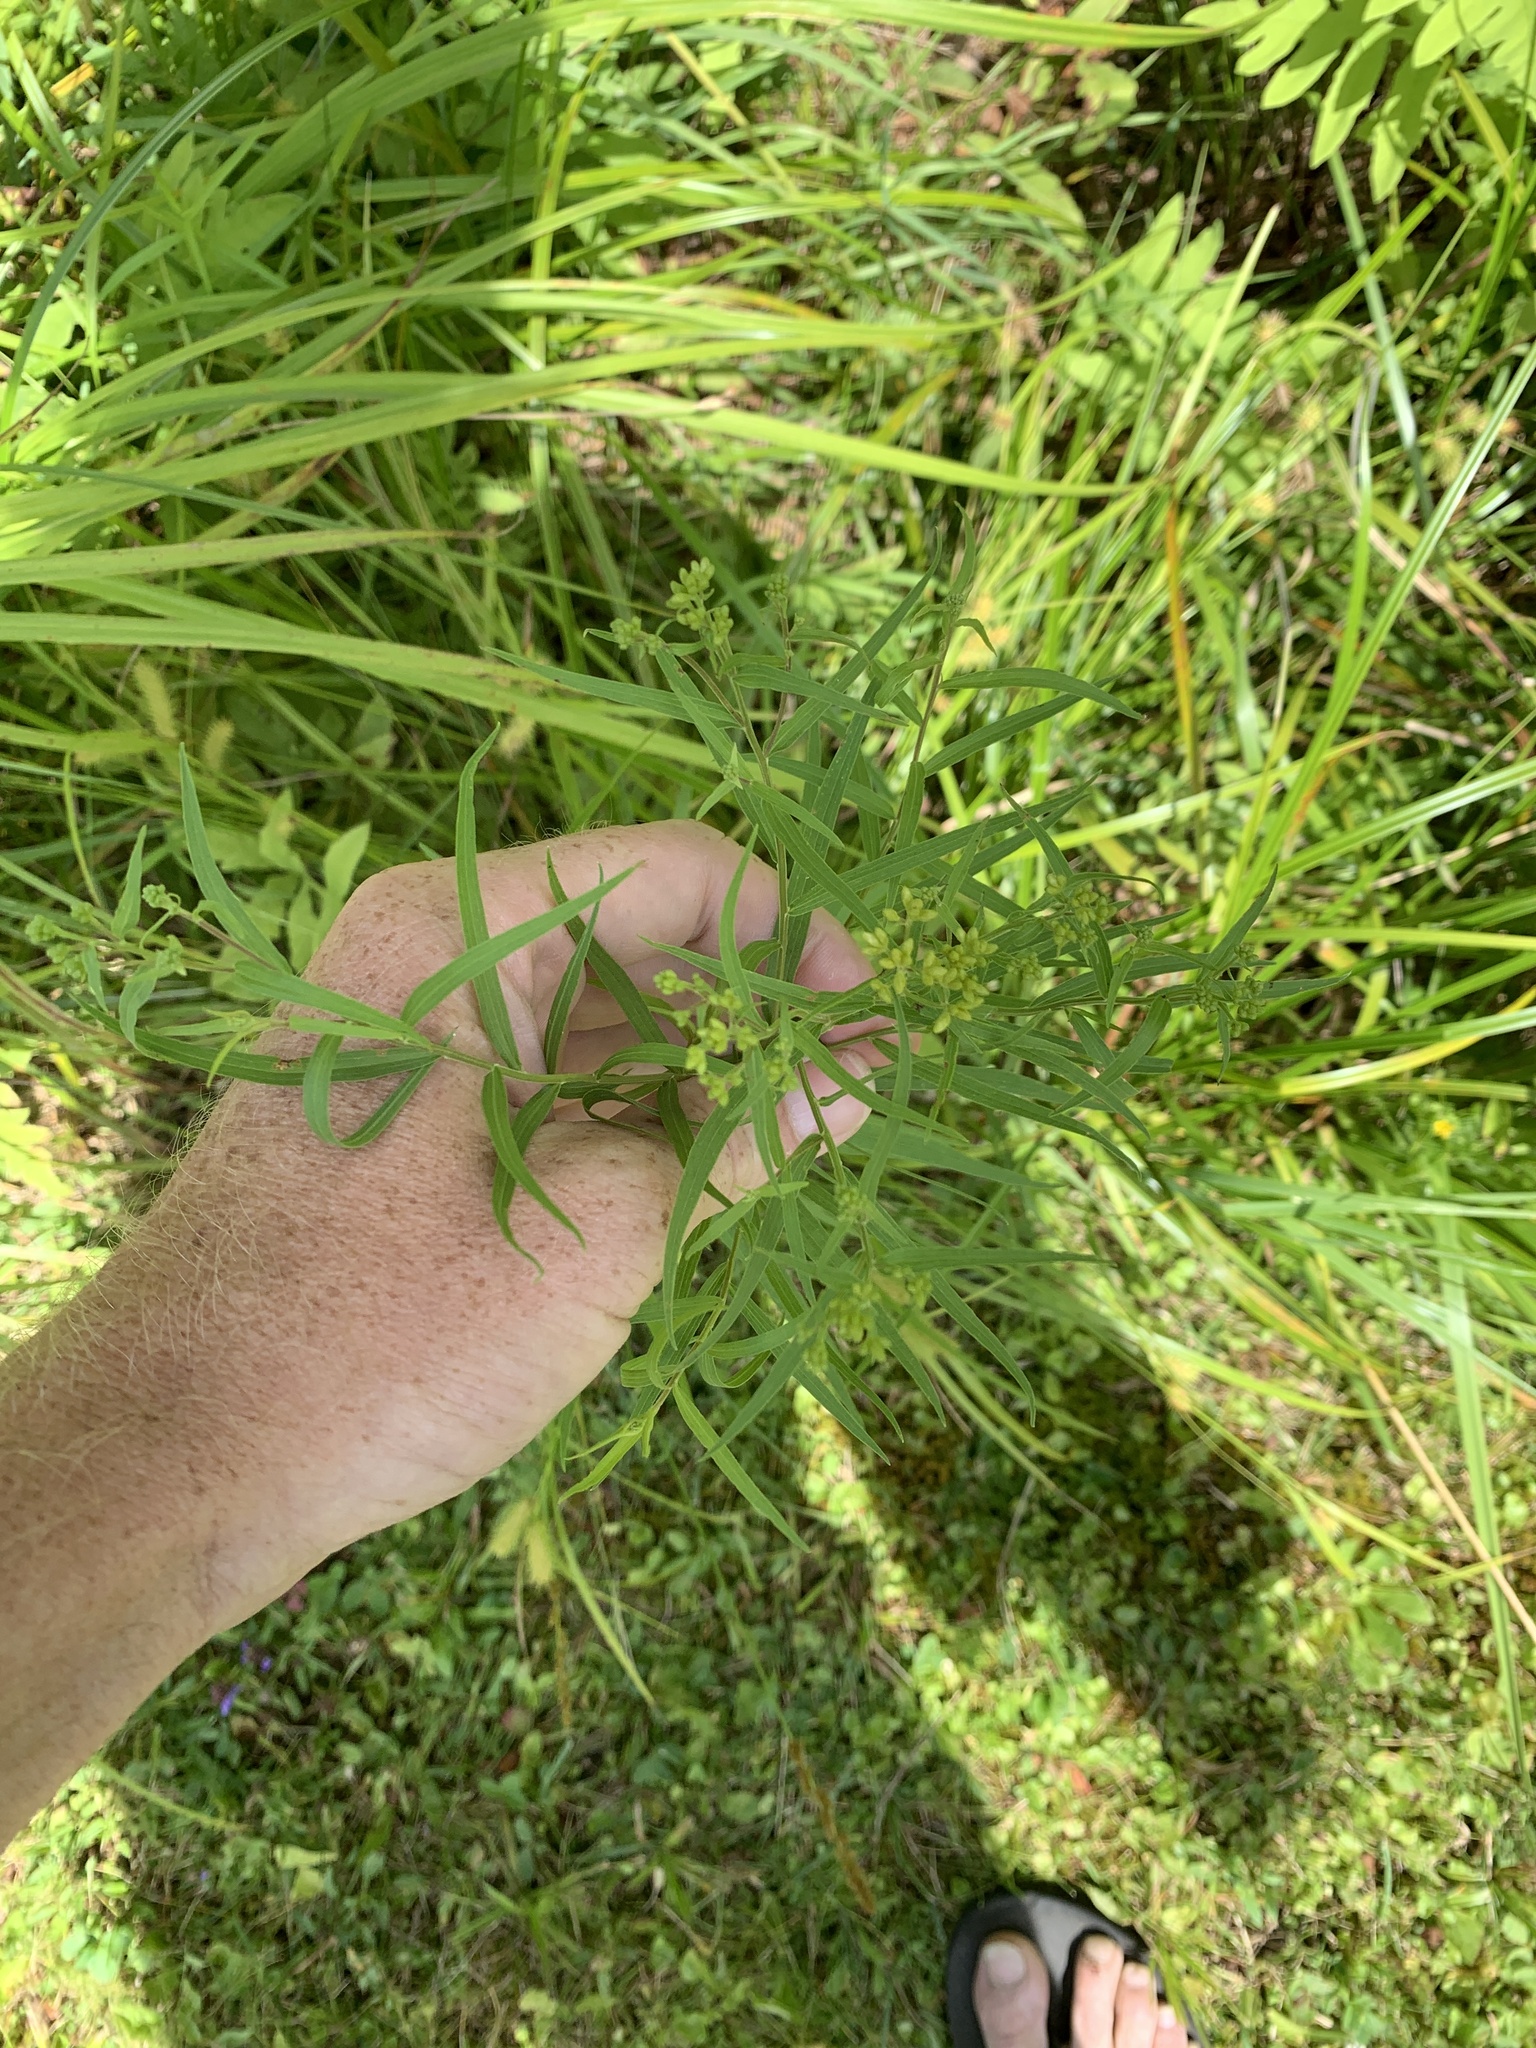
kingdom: Plantae
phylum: Tracheophyta
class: Magnoliopsida
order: Asterales
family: Asteraceae
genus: Euthamia
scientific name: Euthamia graminifolia
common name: Common goldentop
